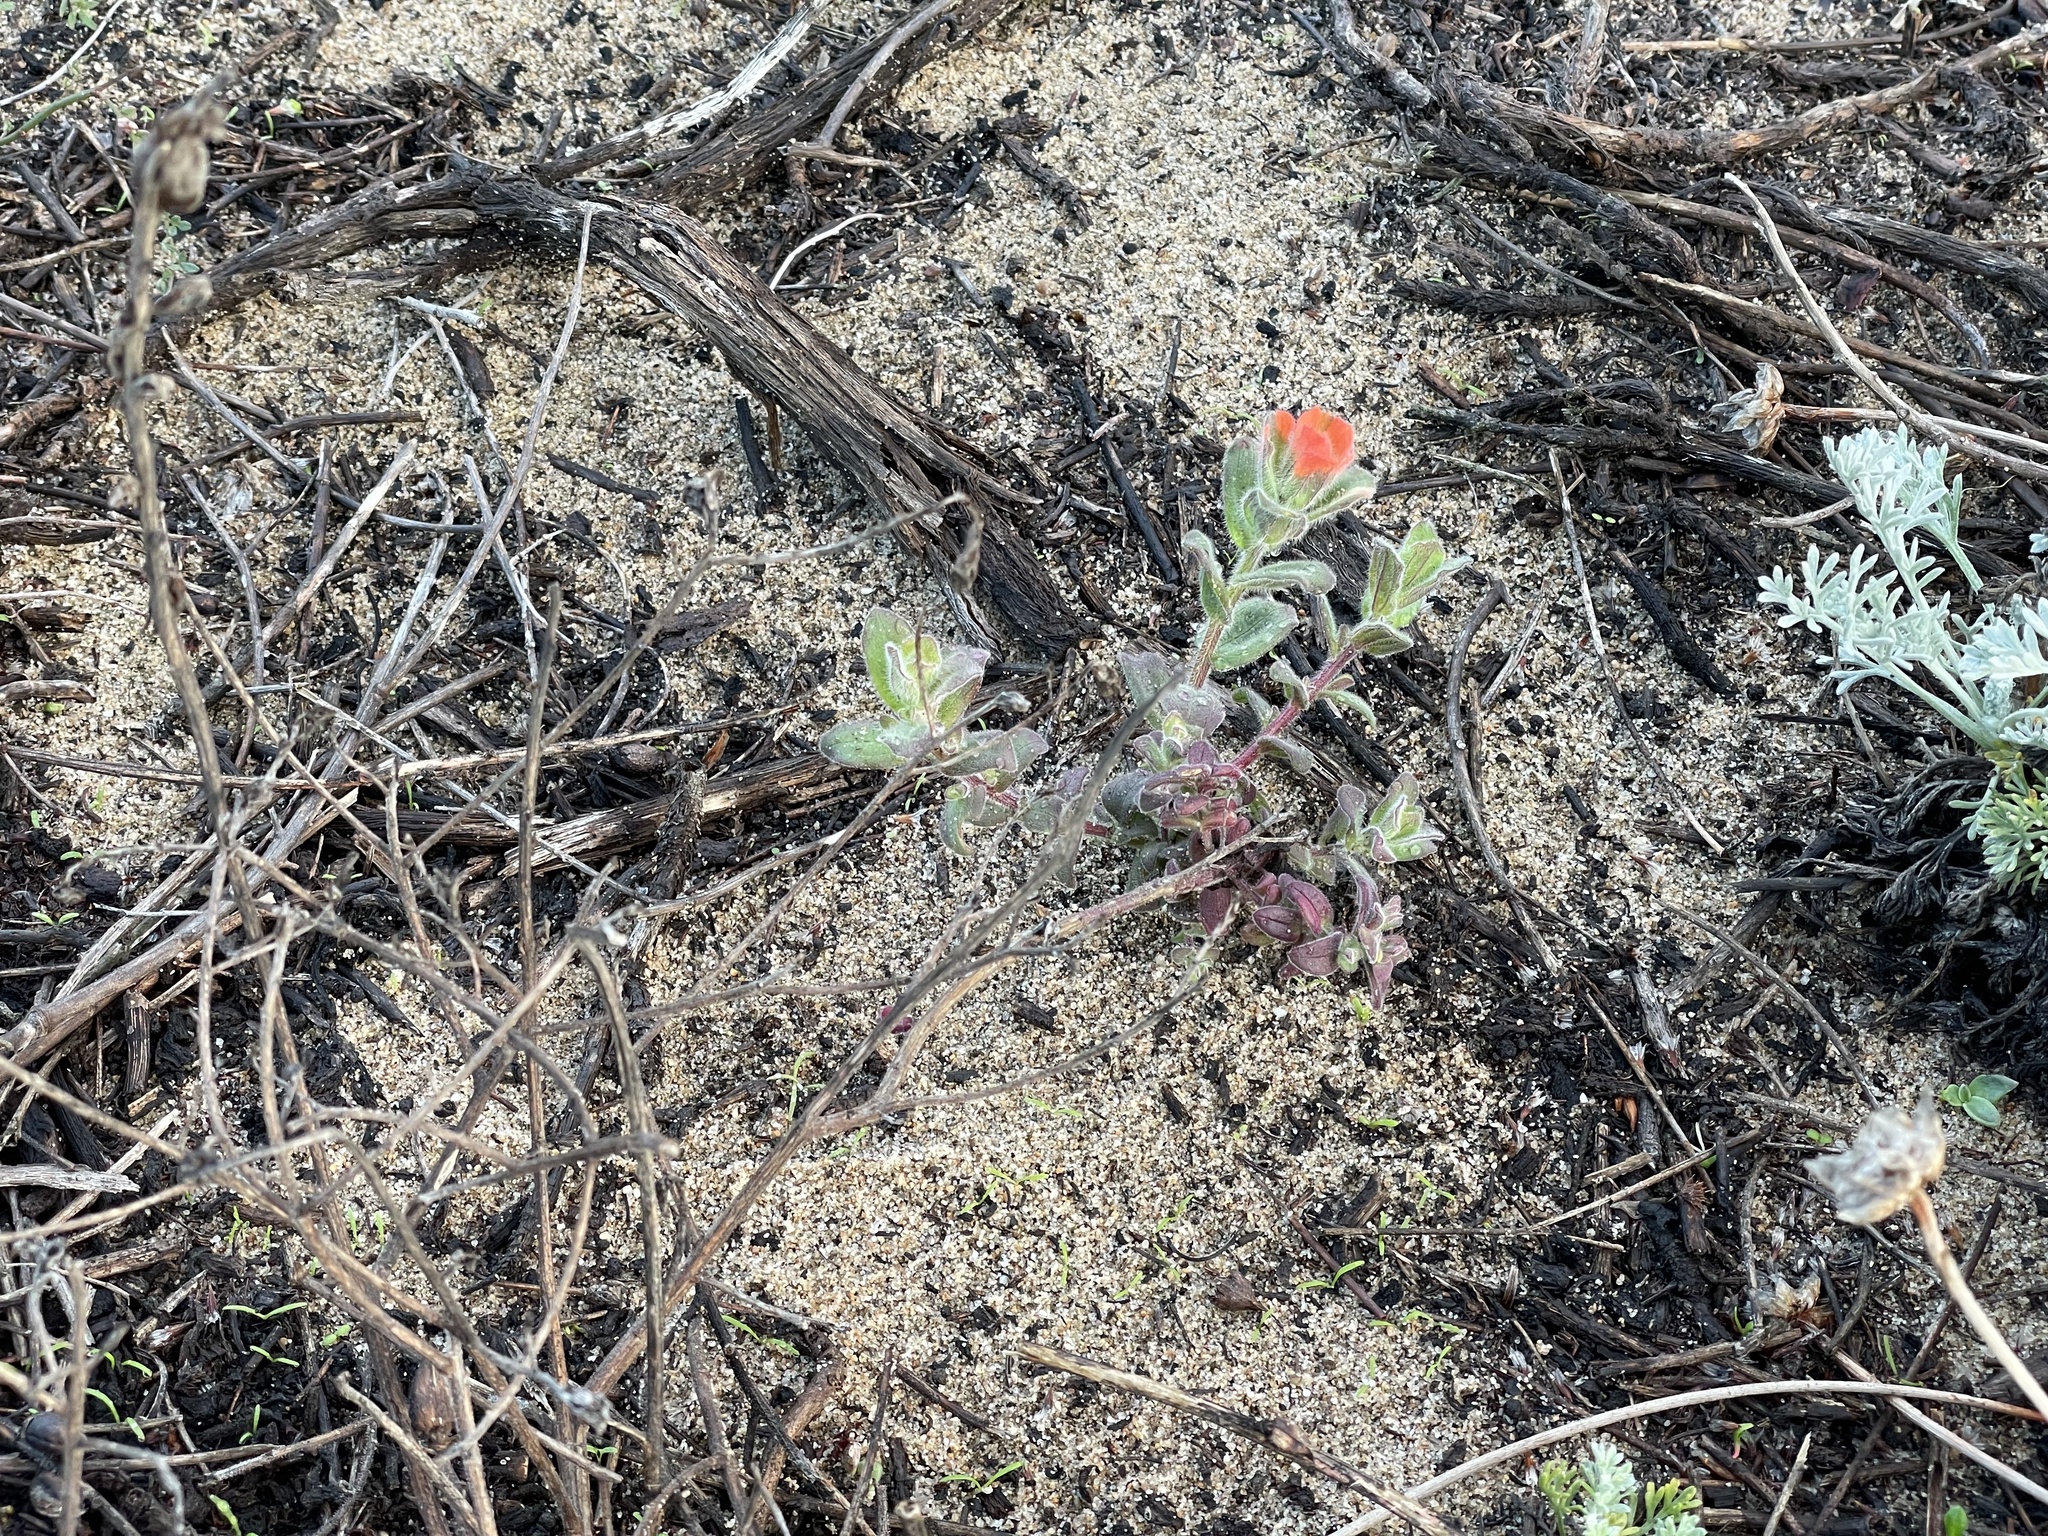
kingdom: Plantae
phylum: Tracheophyta
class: Magnoliopsida
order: Lamiales
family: Orobanchaceae
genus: Castilleja
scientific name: Castilleja latifolia
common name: Monterey indian paintbrush
